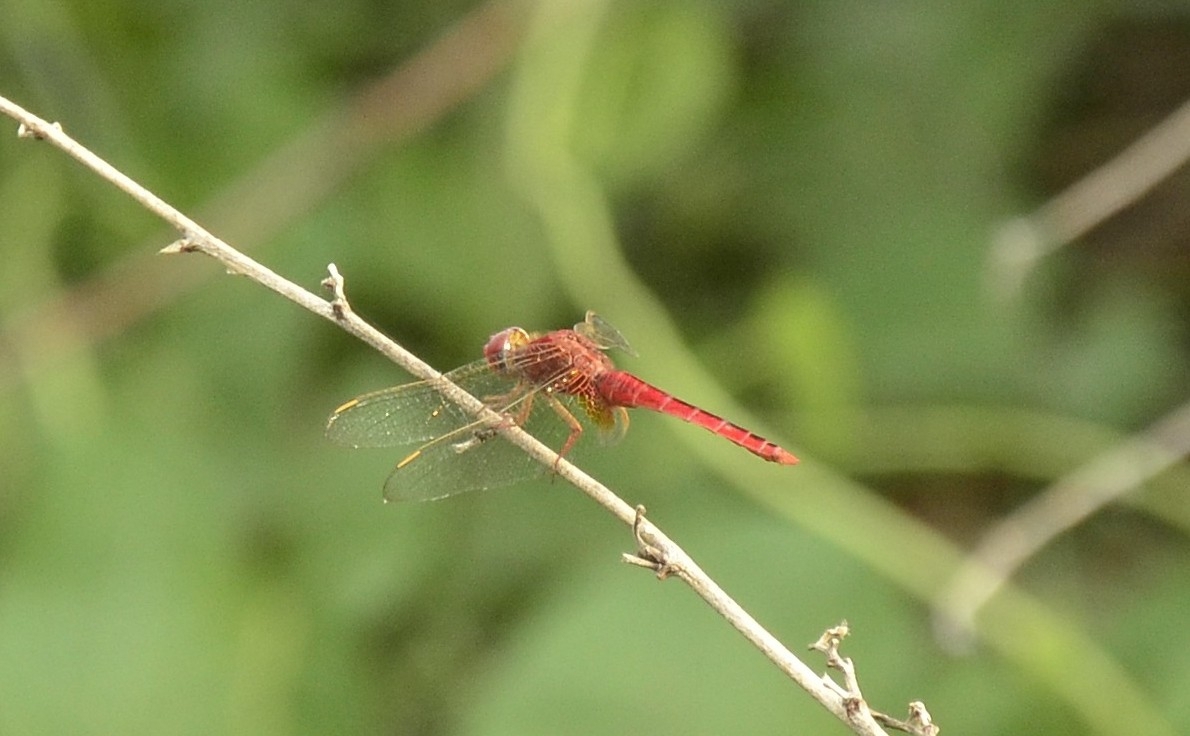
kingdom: Animalia
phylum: Arthropoda
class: Insecta
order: Odonata
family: Libellulidae
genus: Crocothemis
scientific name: Crocothemis servilia
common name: Scarlet skimmer
